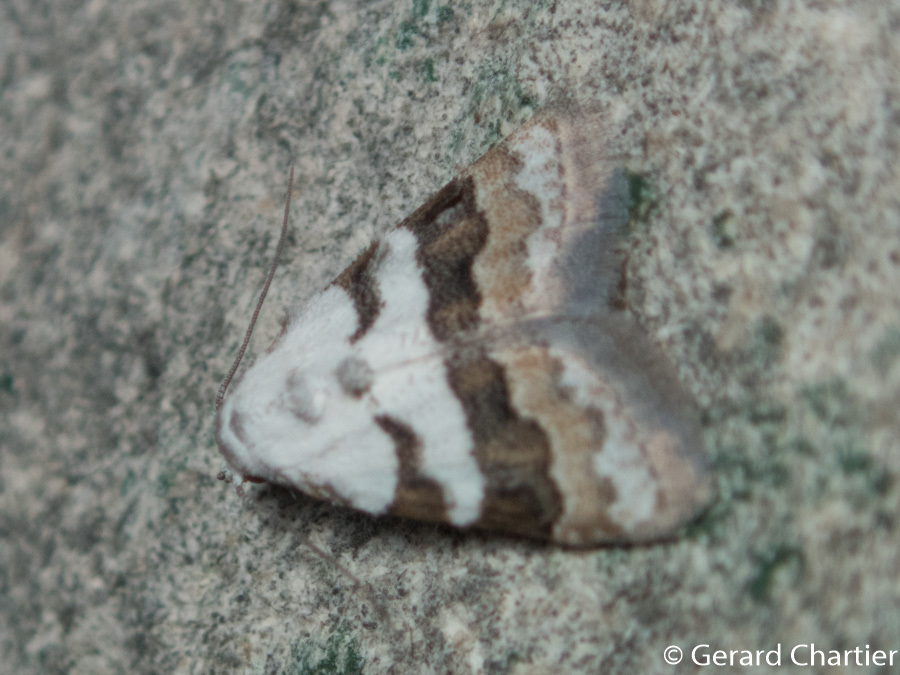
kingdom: Animalia
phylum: Arthropoda
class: Insecta
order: Lepidoptera
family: Nolidae
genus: Nola
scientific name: Nola lucidalis
